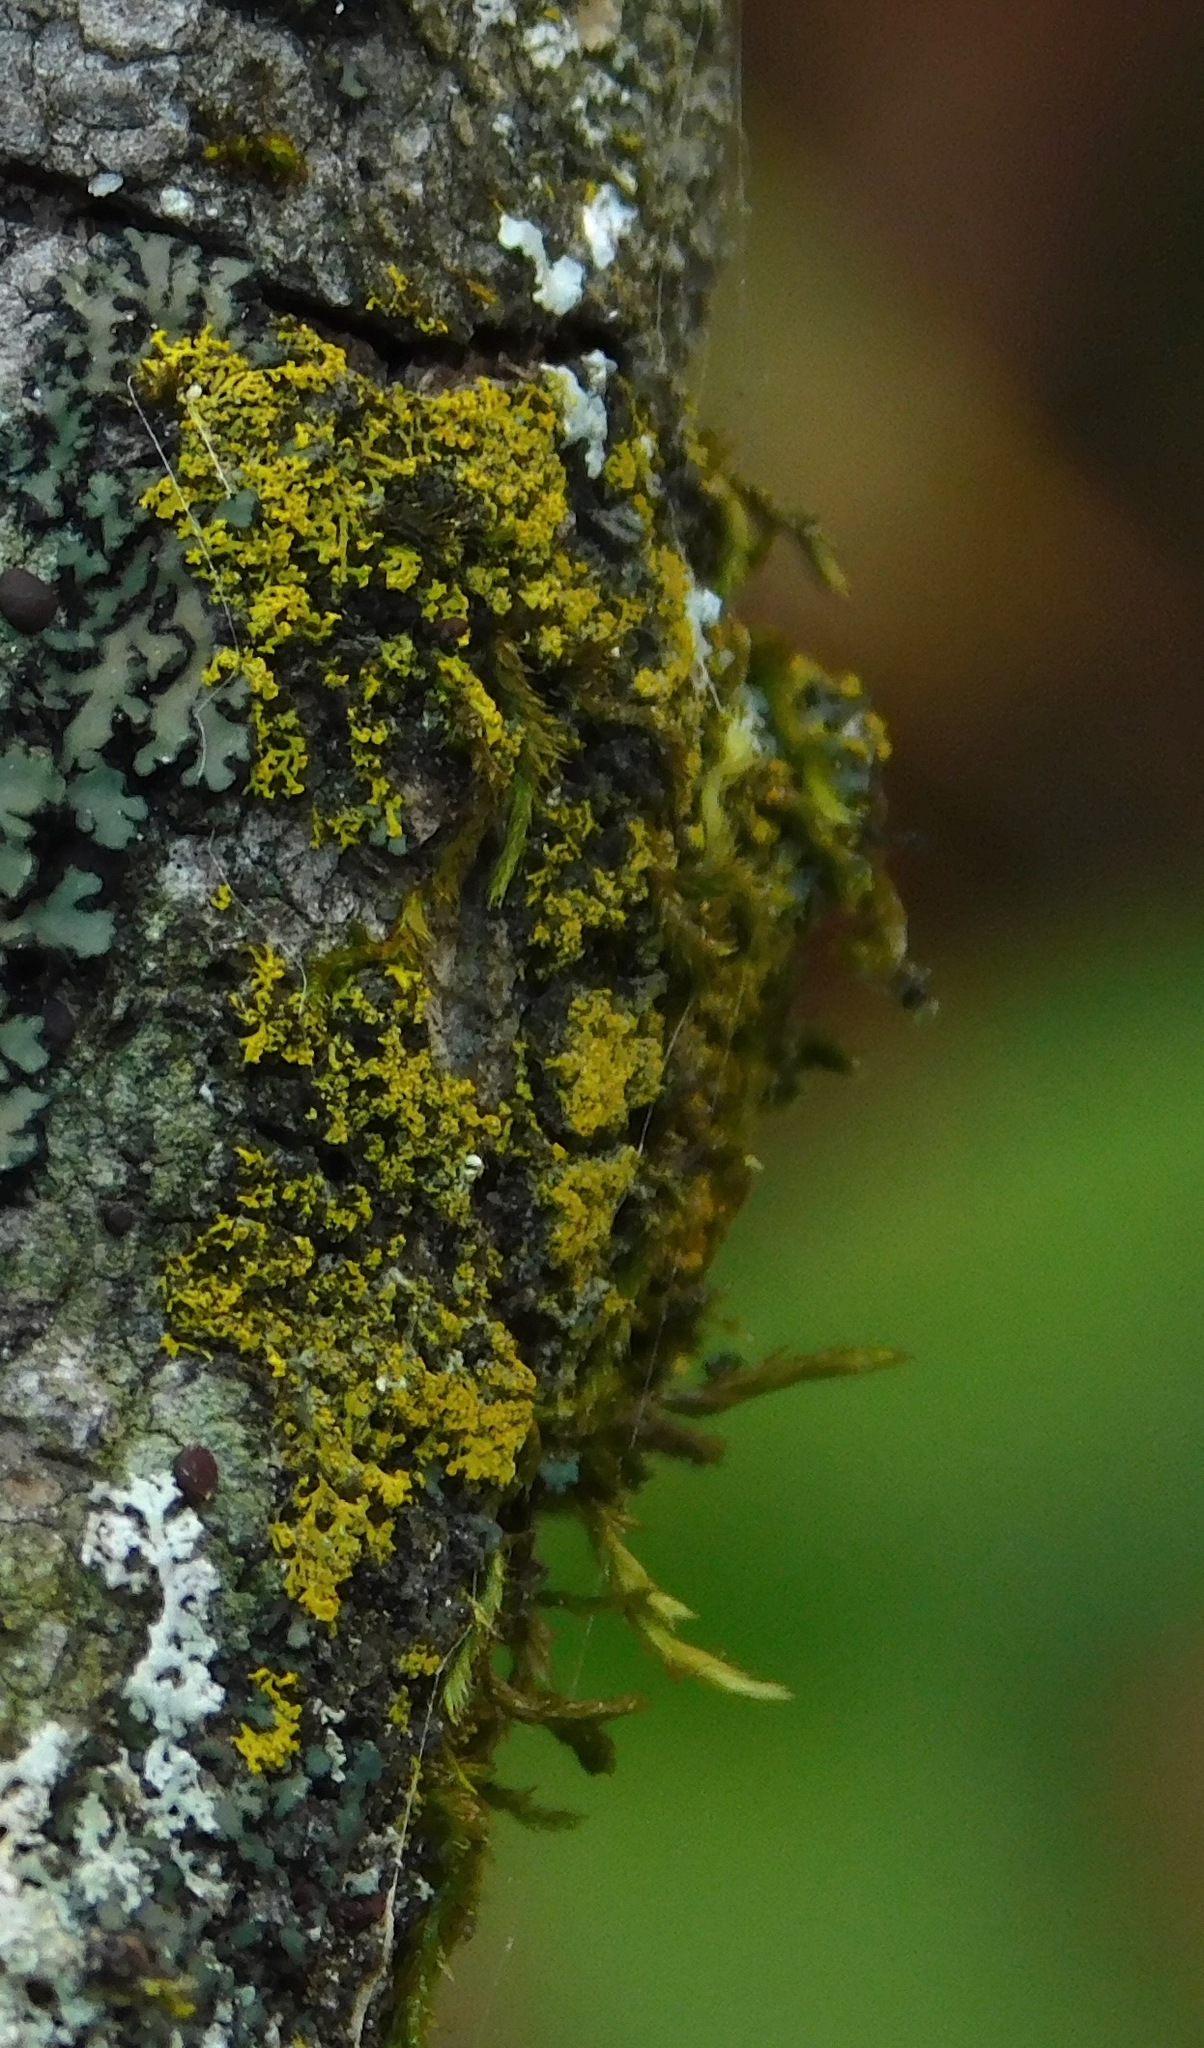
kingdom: Fungi
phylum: Ascomycota
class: Candelariomycetes
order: Candelariales
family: Candelariaceae
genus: Candelaria
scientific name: Candelaria concolor
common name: Candleflame lichen
